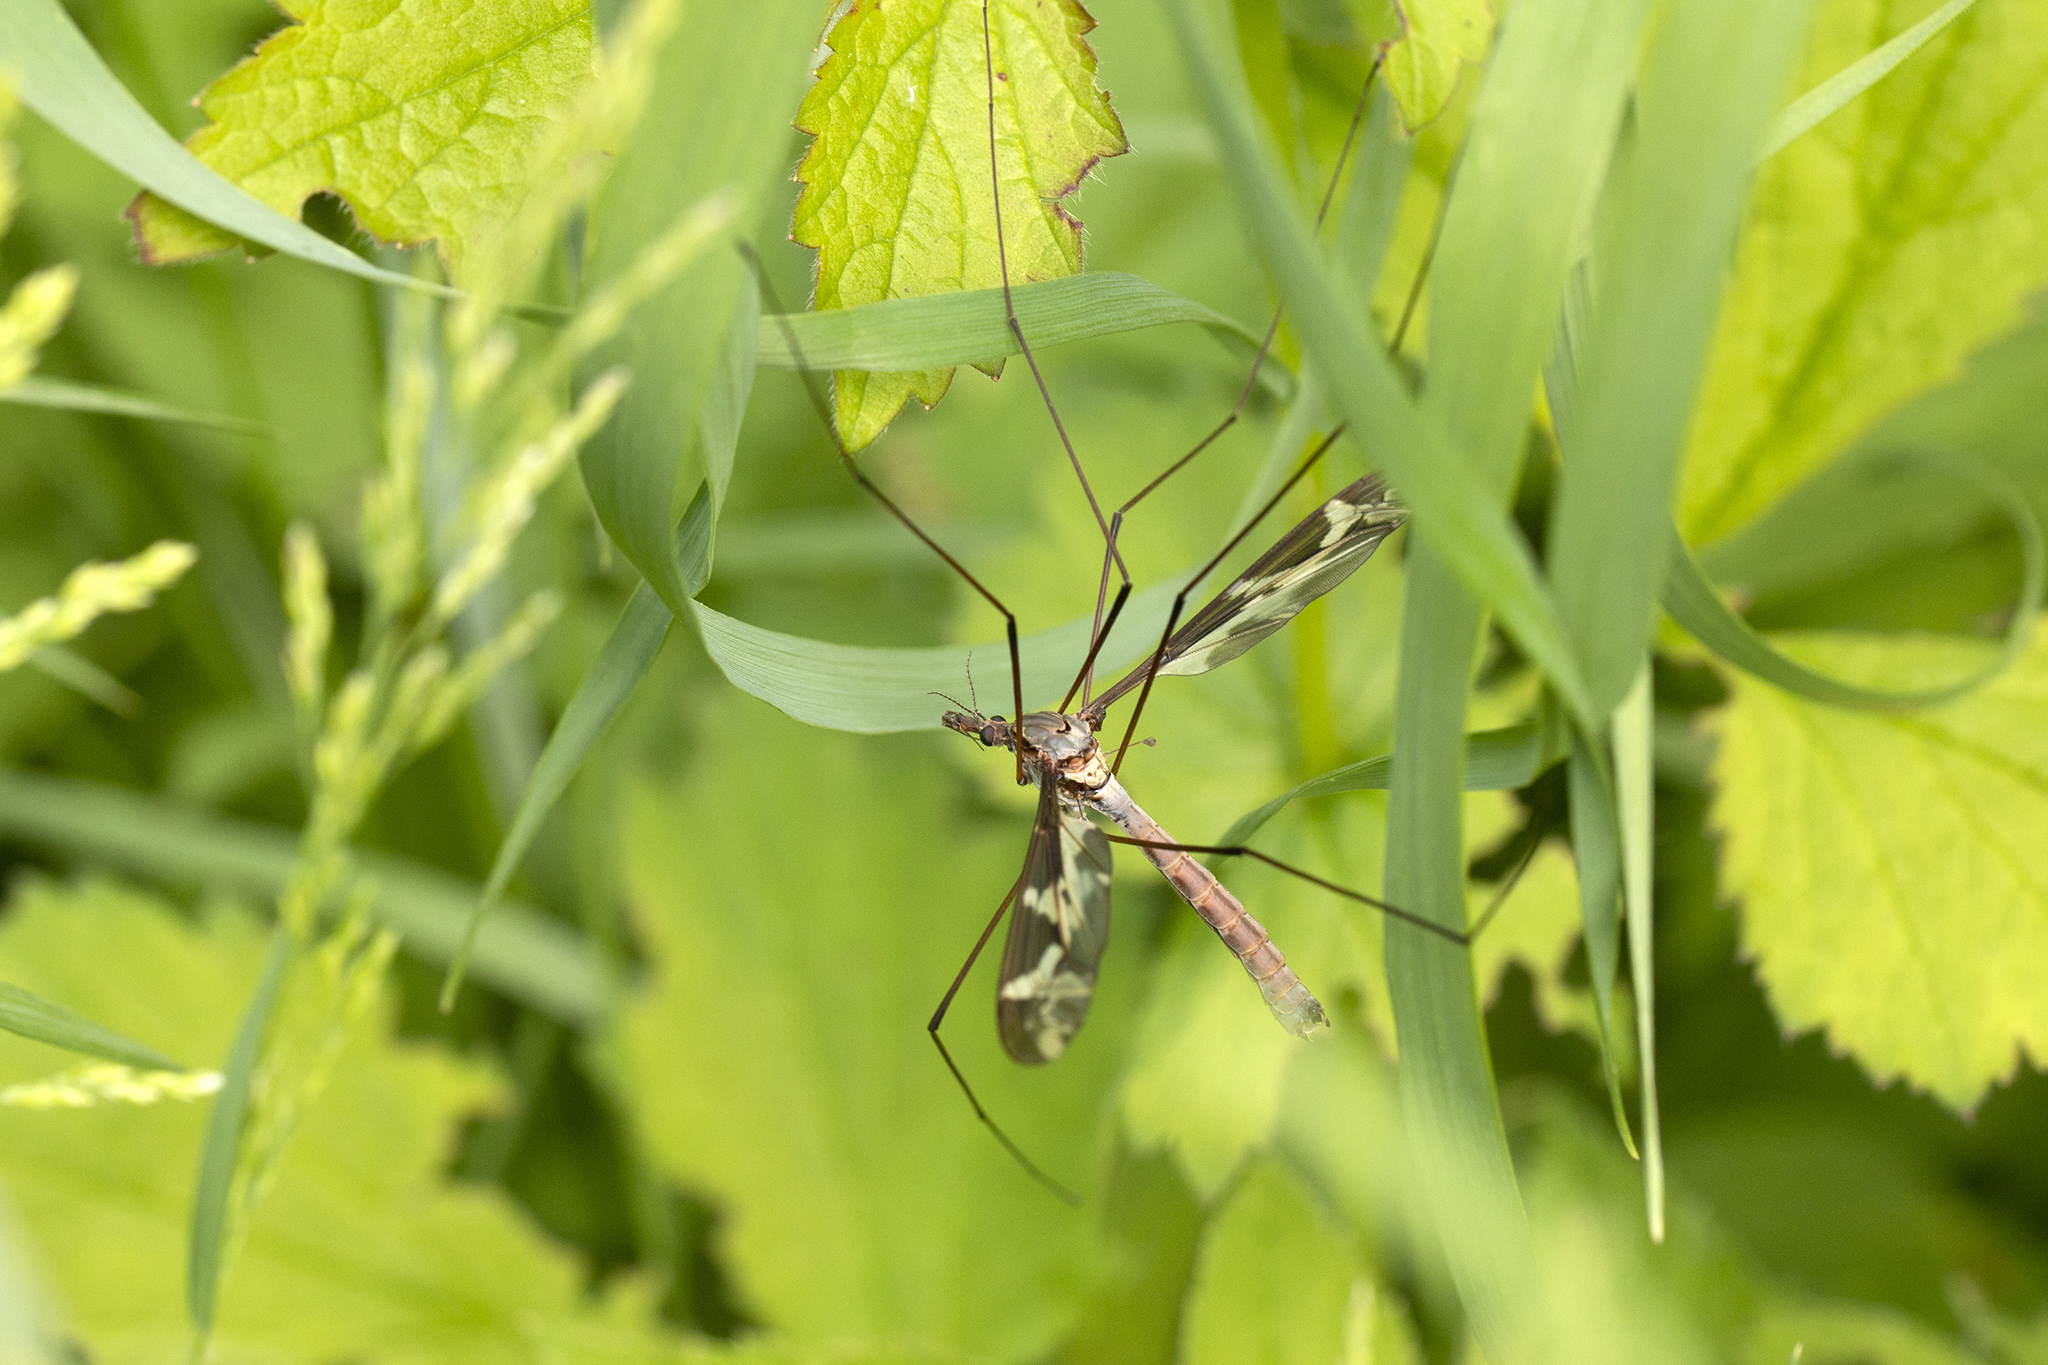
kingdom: Animalia
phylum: Arthropoda
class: Insecta
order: Diptera
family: Tipulidae
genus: Tipula
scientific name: Tipula maxima
